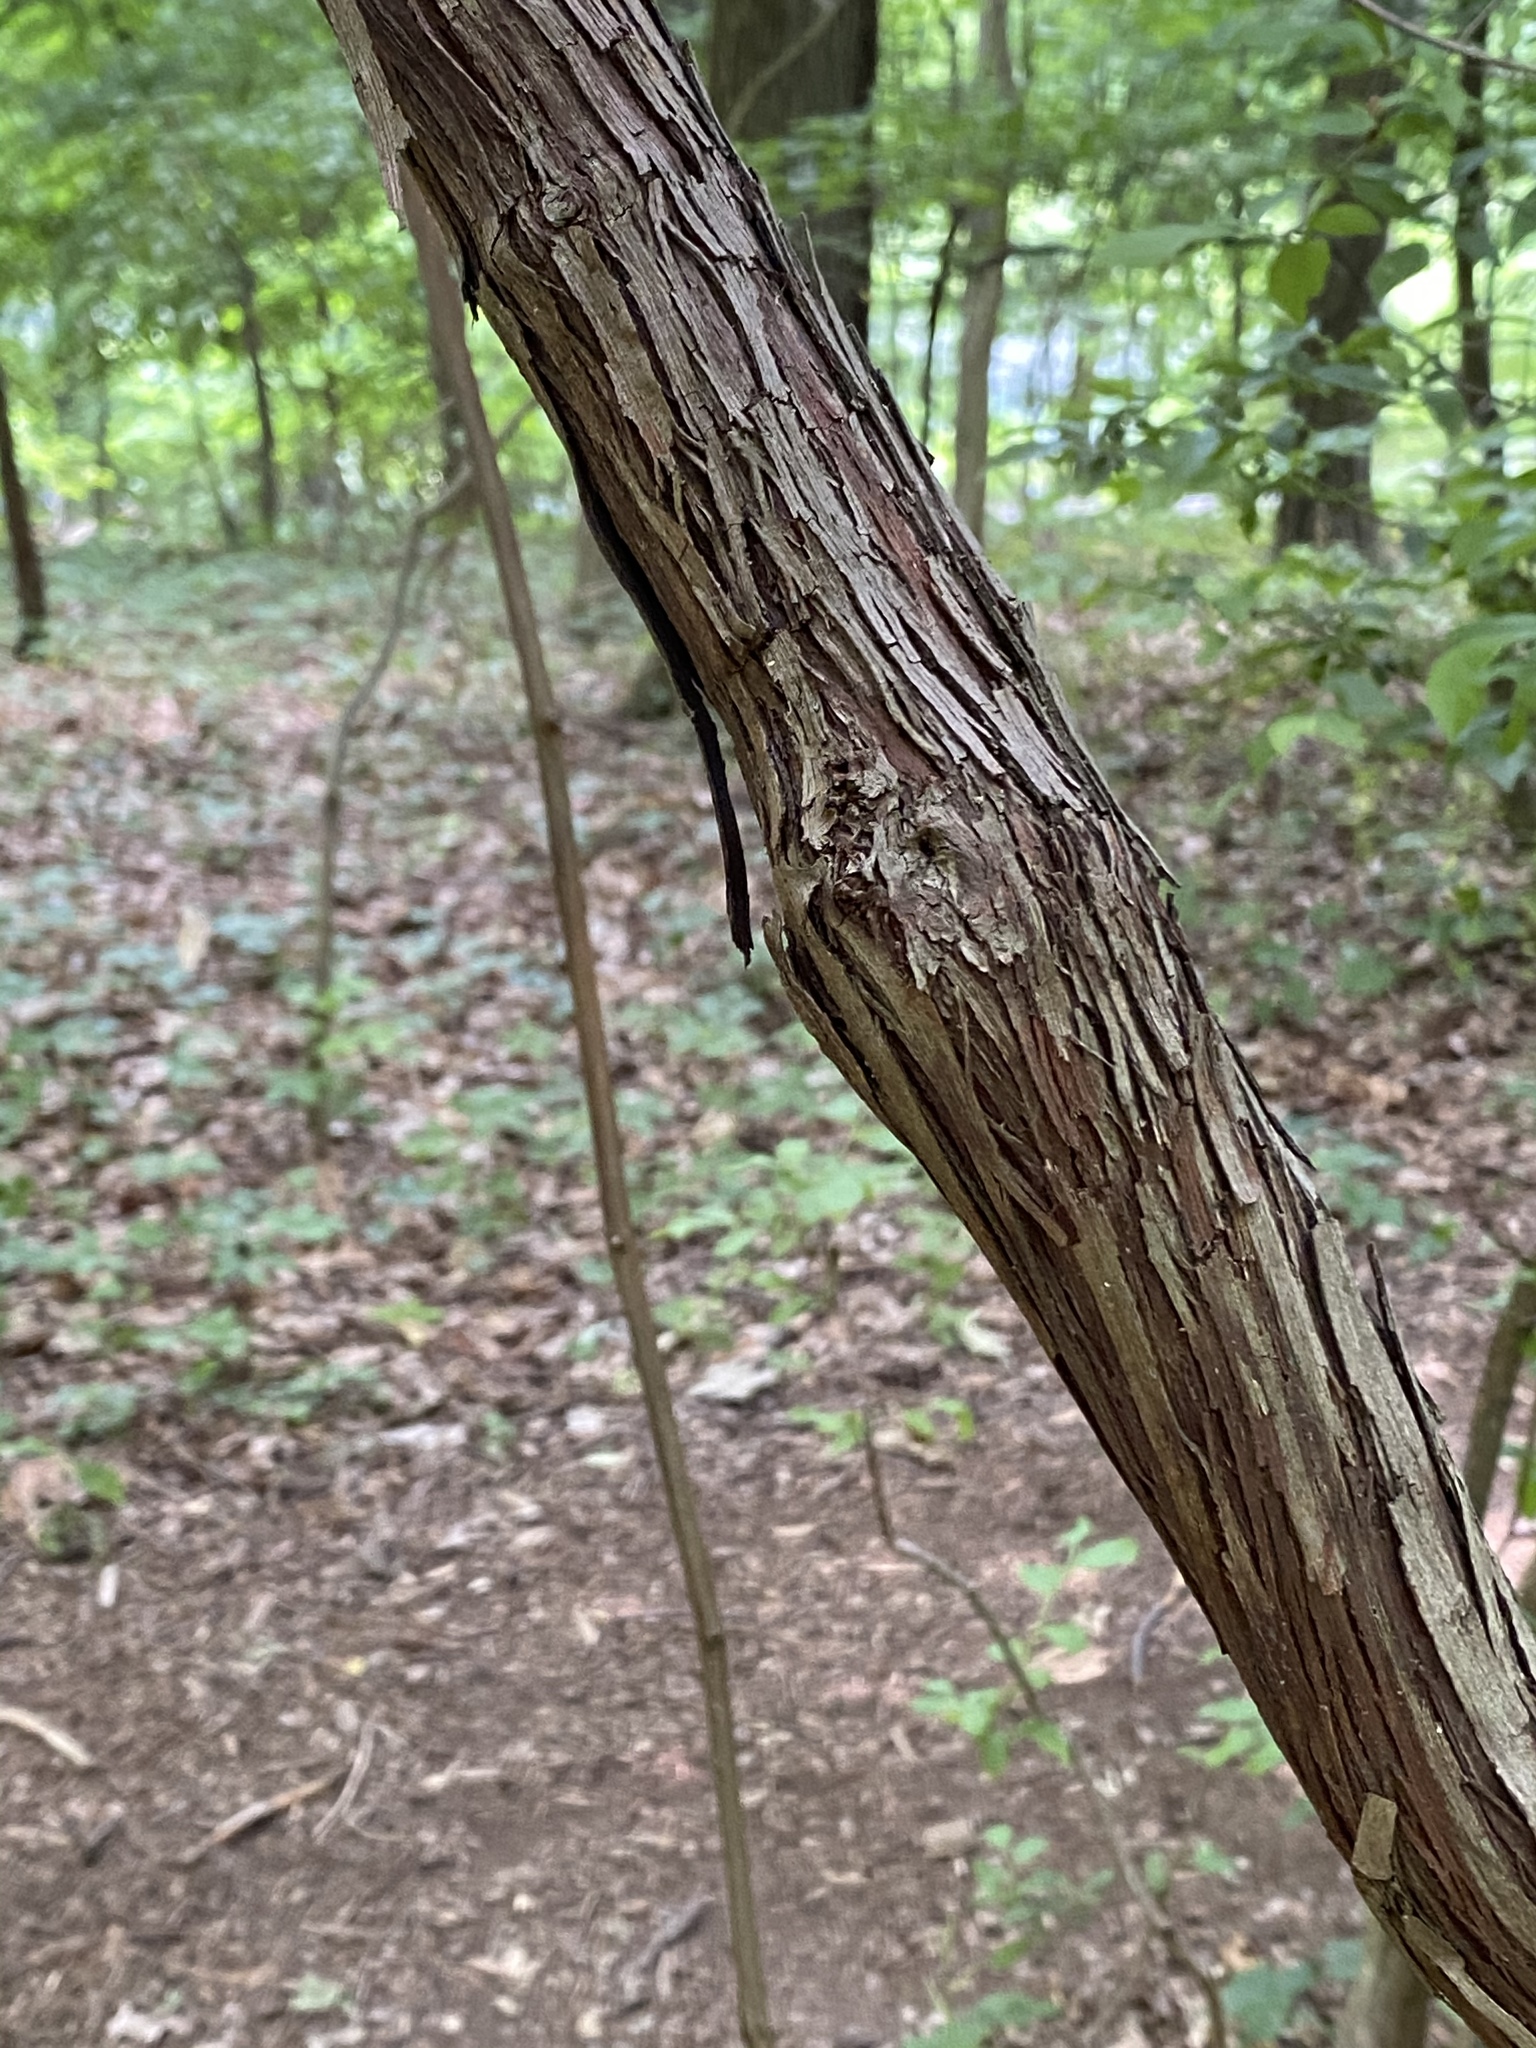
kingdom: Plantae
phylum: Tracheophyta
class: Magnoliopsida
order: Vitales
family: Vitaceae
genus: Vitis
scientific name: Vitis
